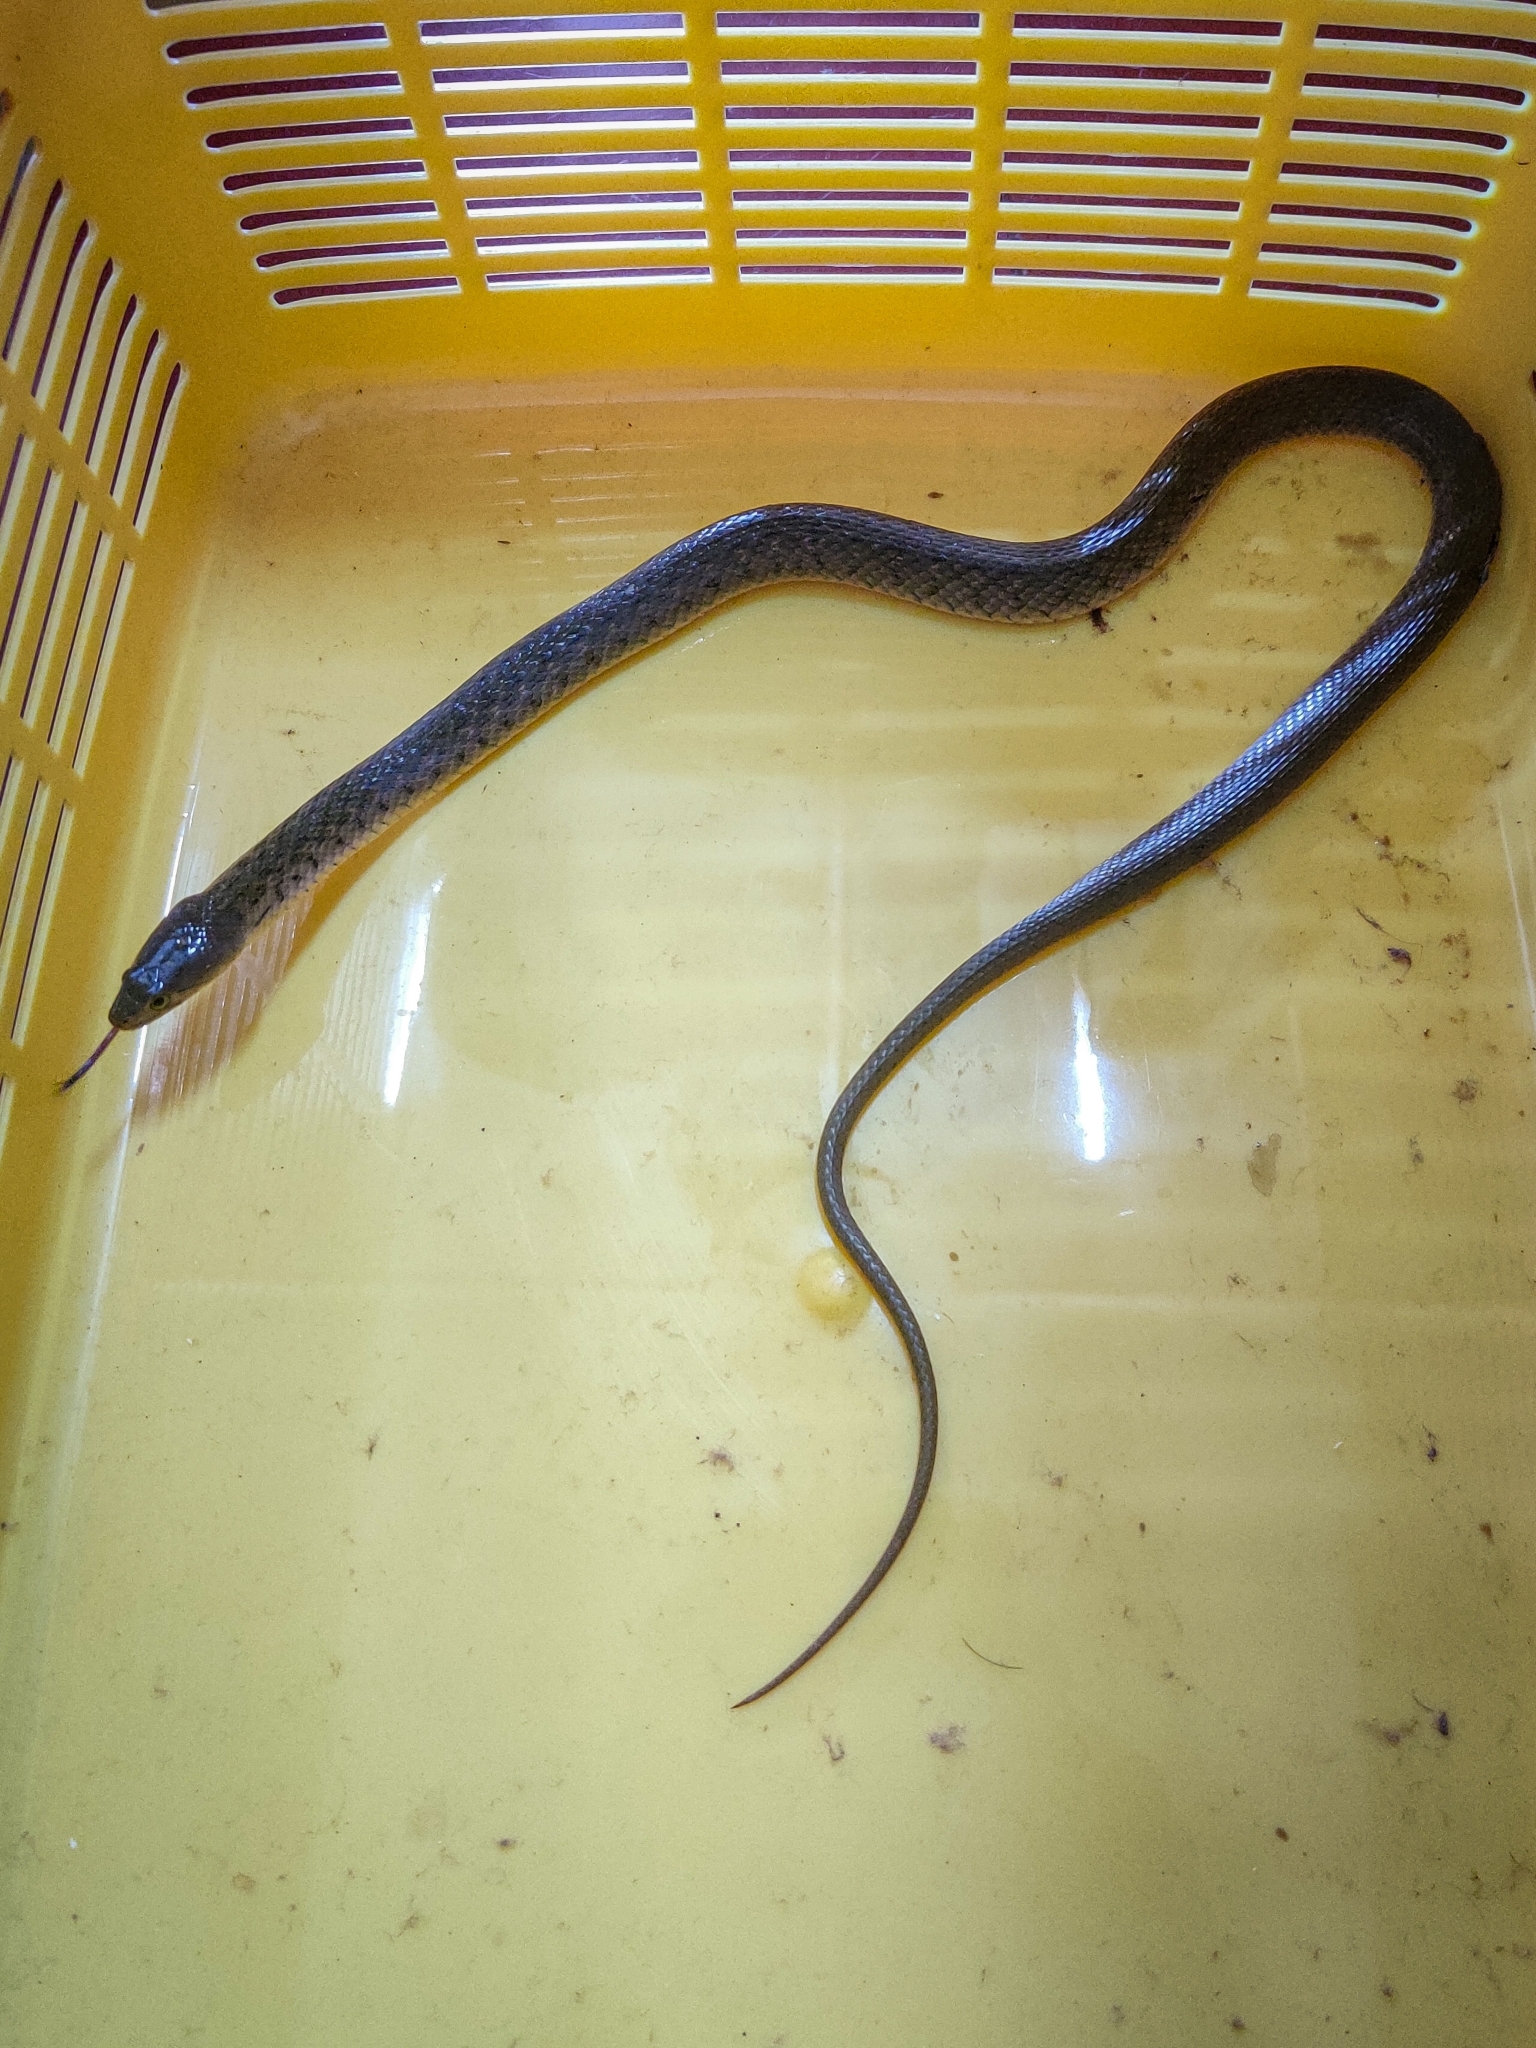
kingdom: Animalia
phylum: Chordata
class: Squamata
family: Colubridae
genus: Fowlea
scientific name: Fowlea piscator
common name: Asiatic water snake
